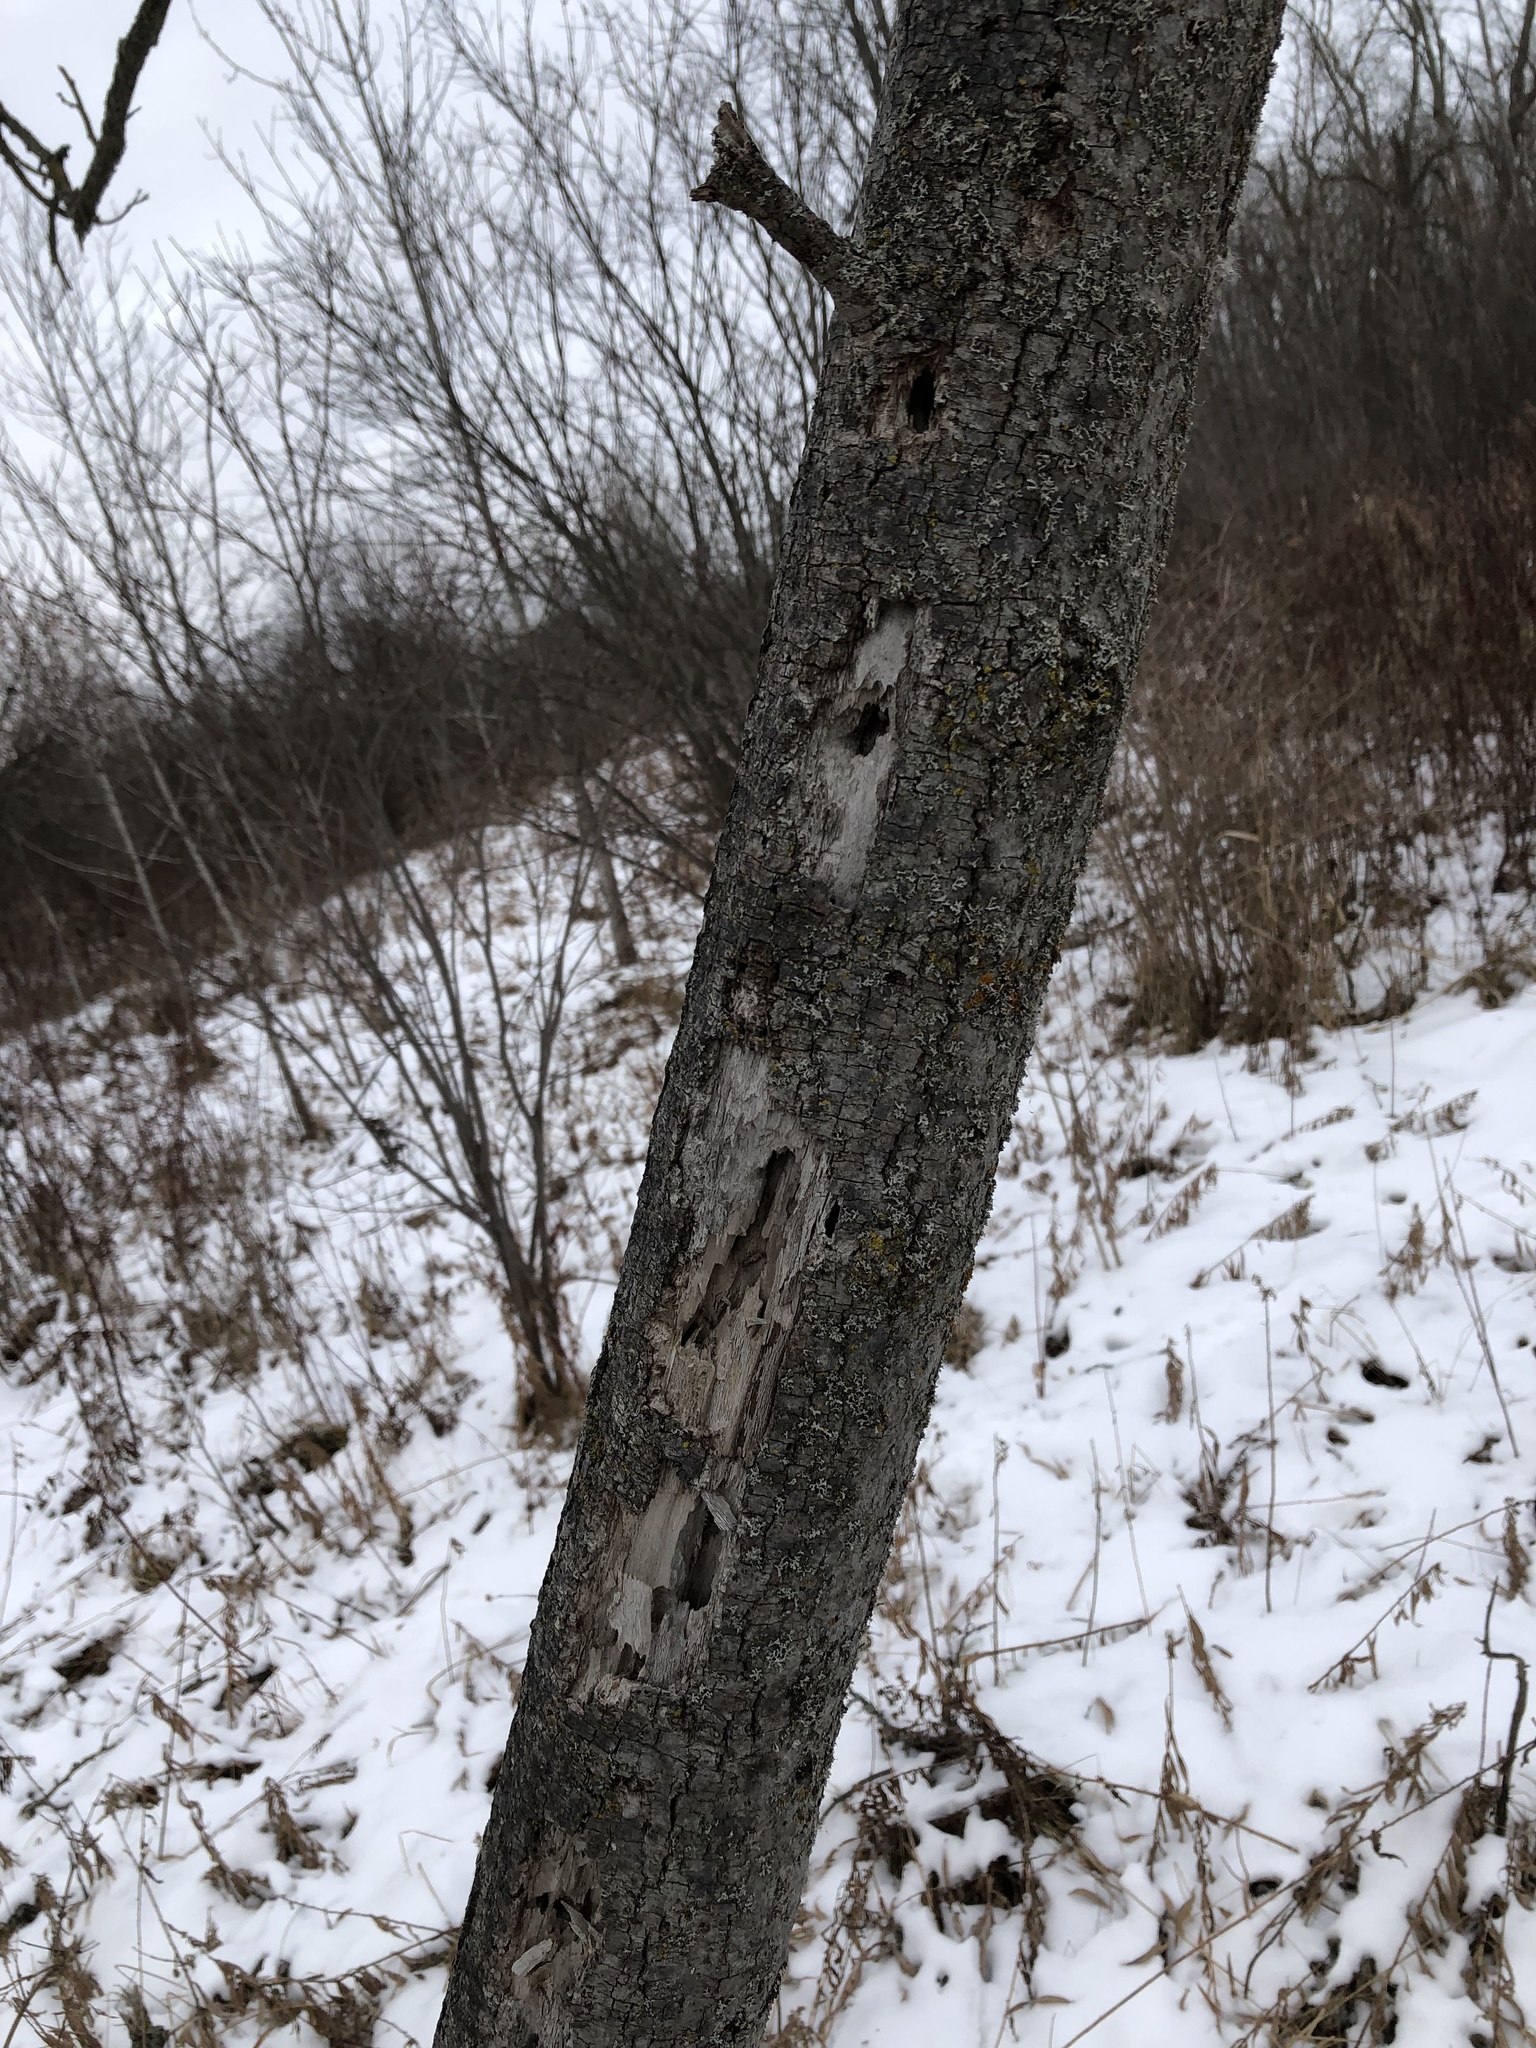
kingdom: Animalia
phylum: Chordata
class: Aves
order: Piciformes
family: Picidae
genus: Dryocopus
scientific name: Dryocopus pileatus
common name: Pileated woodpecker
